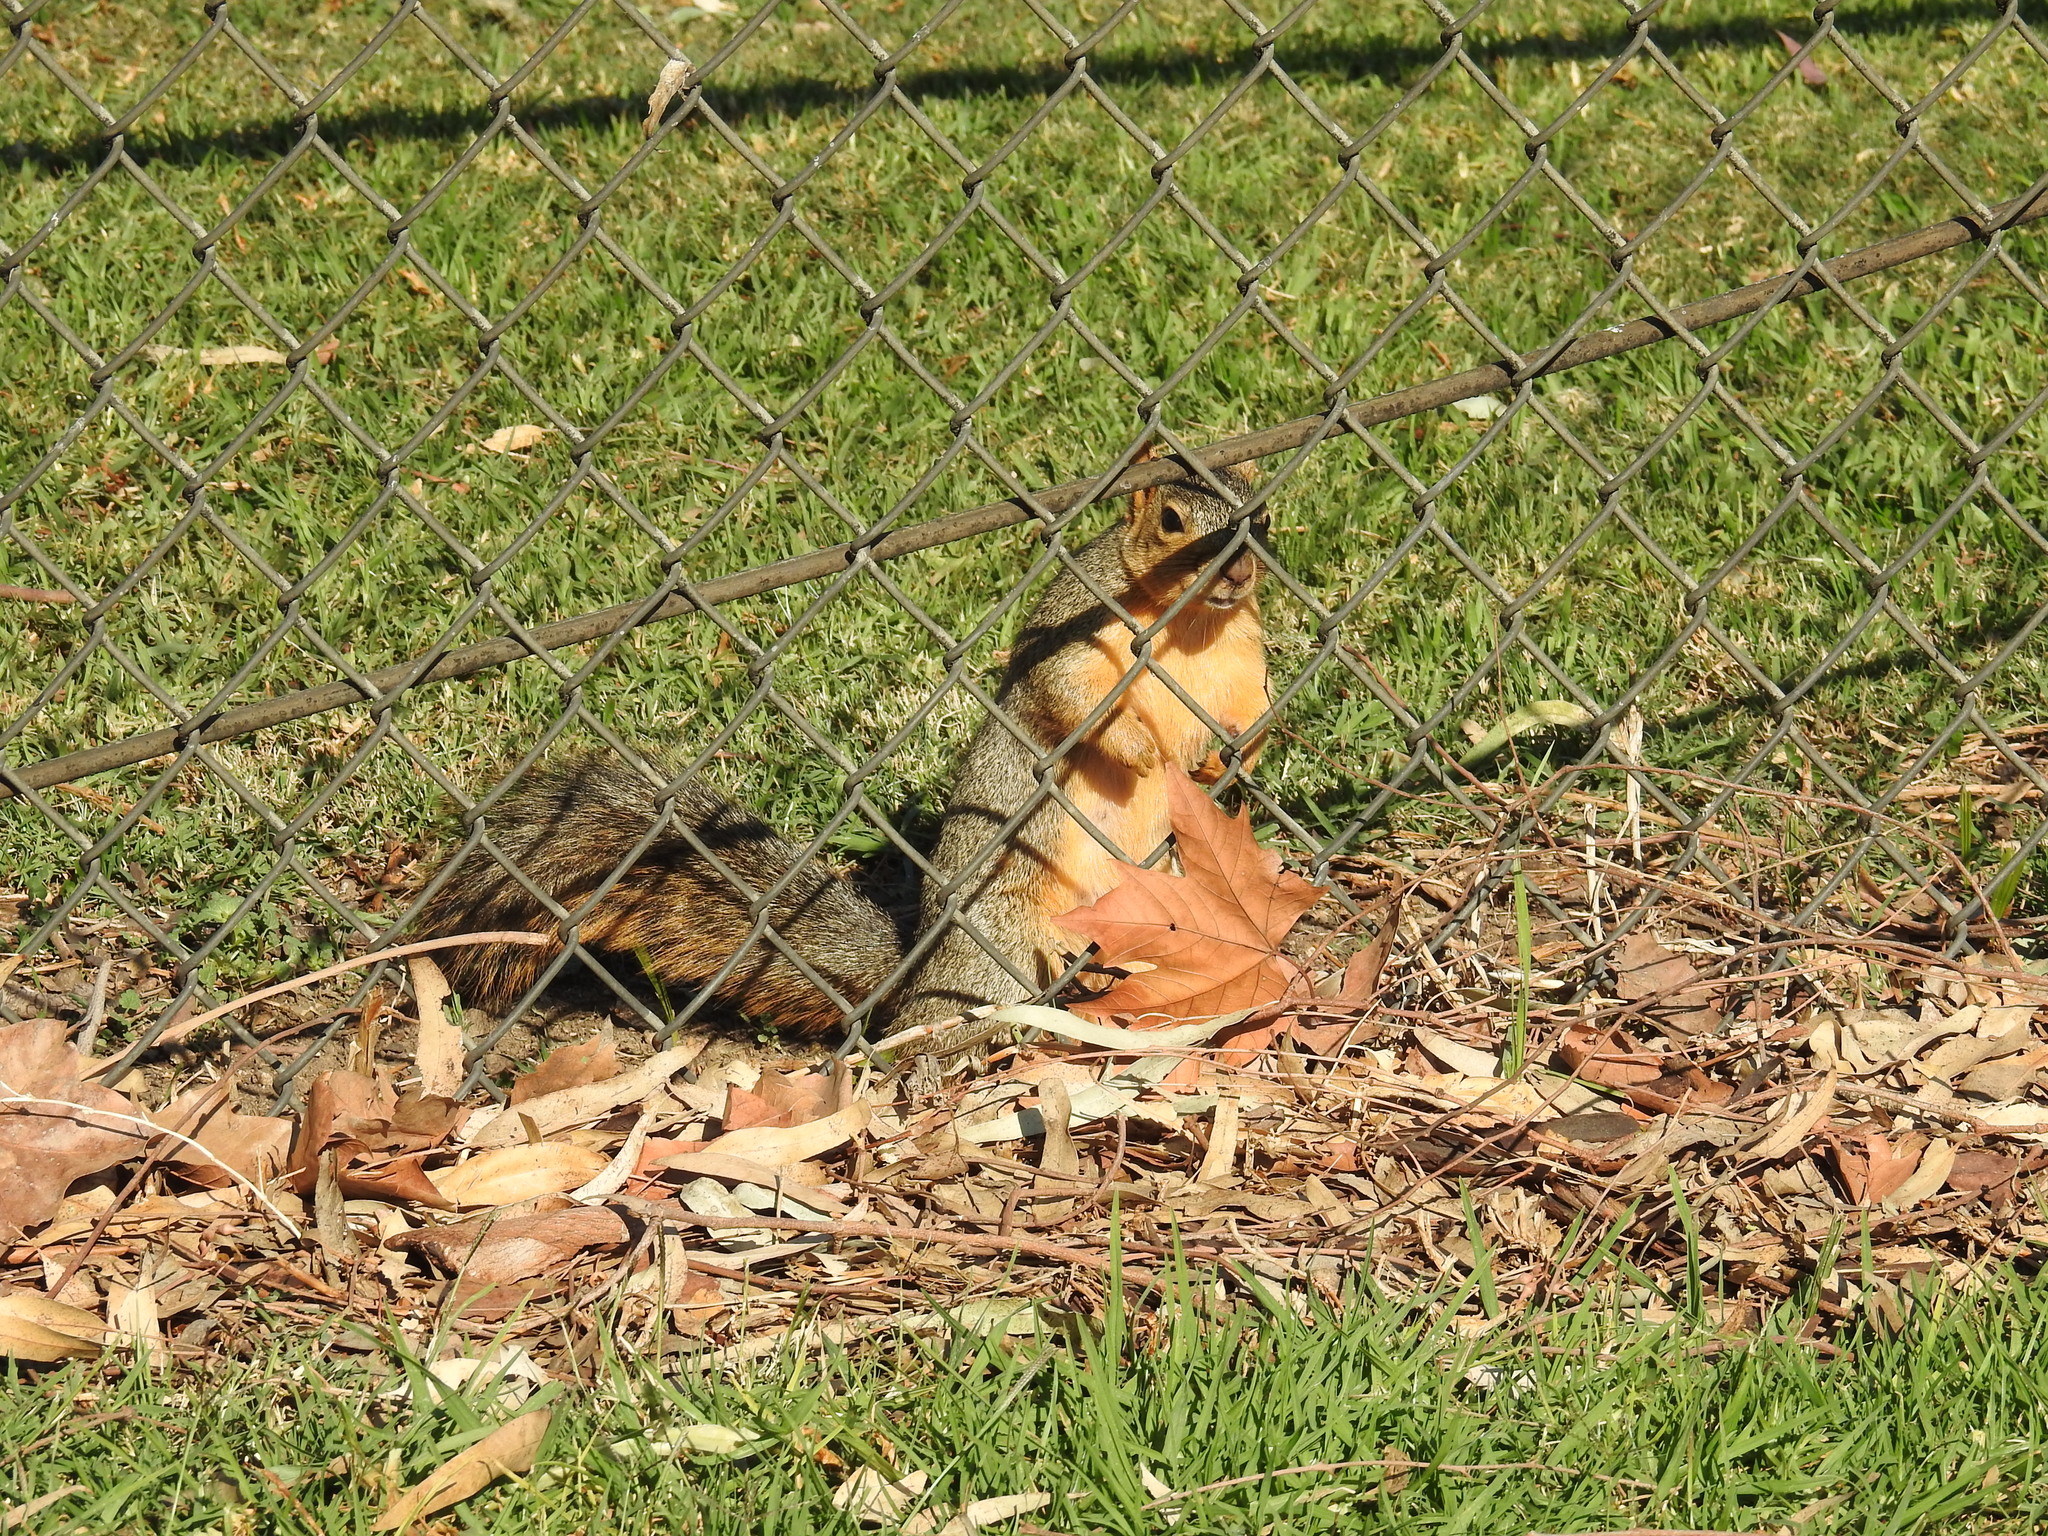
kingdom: Animalia
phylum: Chordata
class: Mammalia
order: Rodentia
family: Sciuridae
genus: Sciurus
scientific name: Sciurus niger
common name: Fox squirrel
